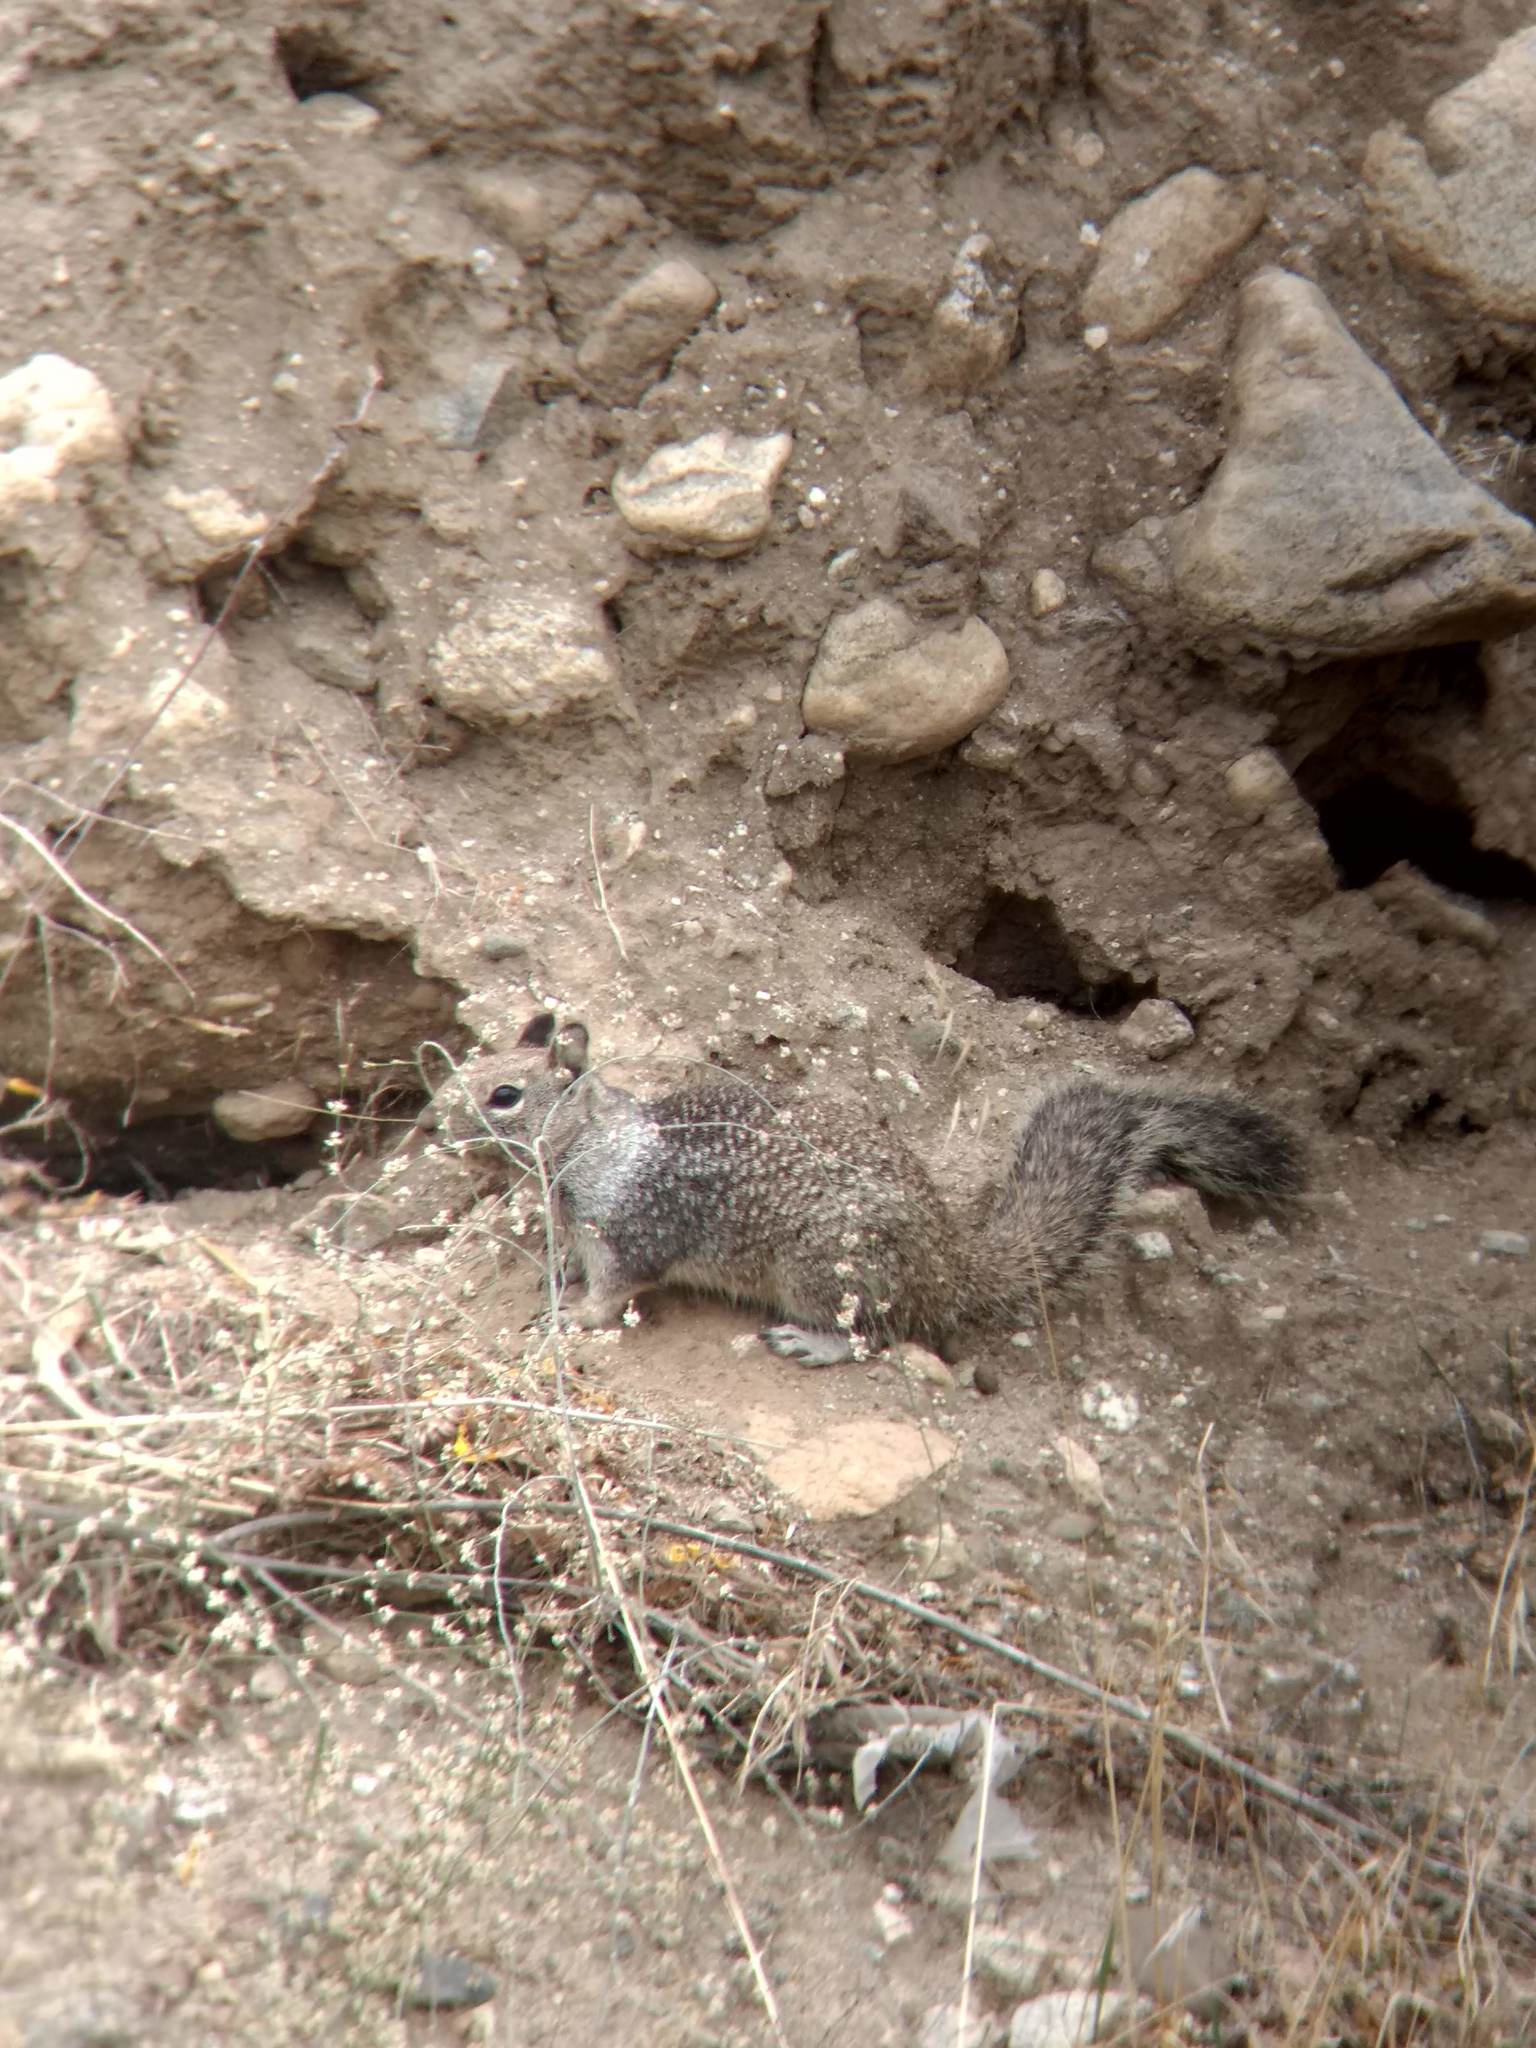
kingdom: Animalia
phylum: Chordata
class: Mammalia
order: Rodentia
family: Sciuridae
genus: Otospermophilus
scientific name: Otospermophilus beecheyi
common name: California ground squirrel
